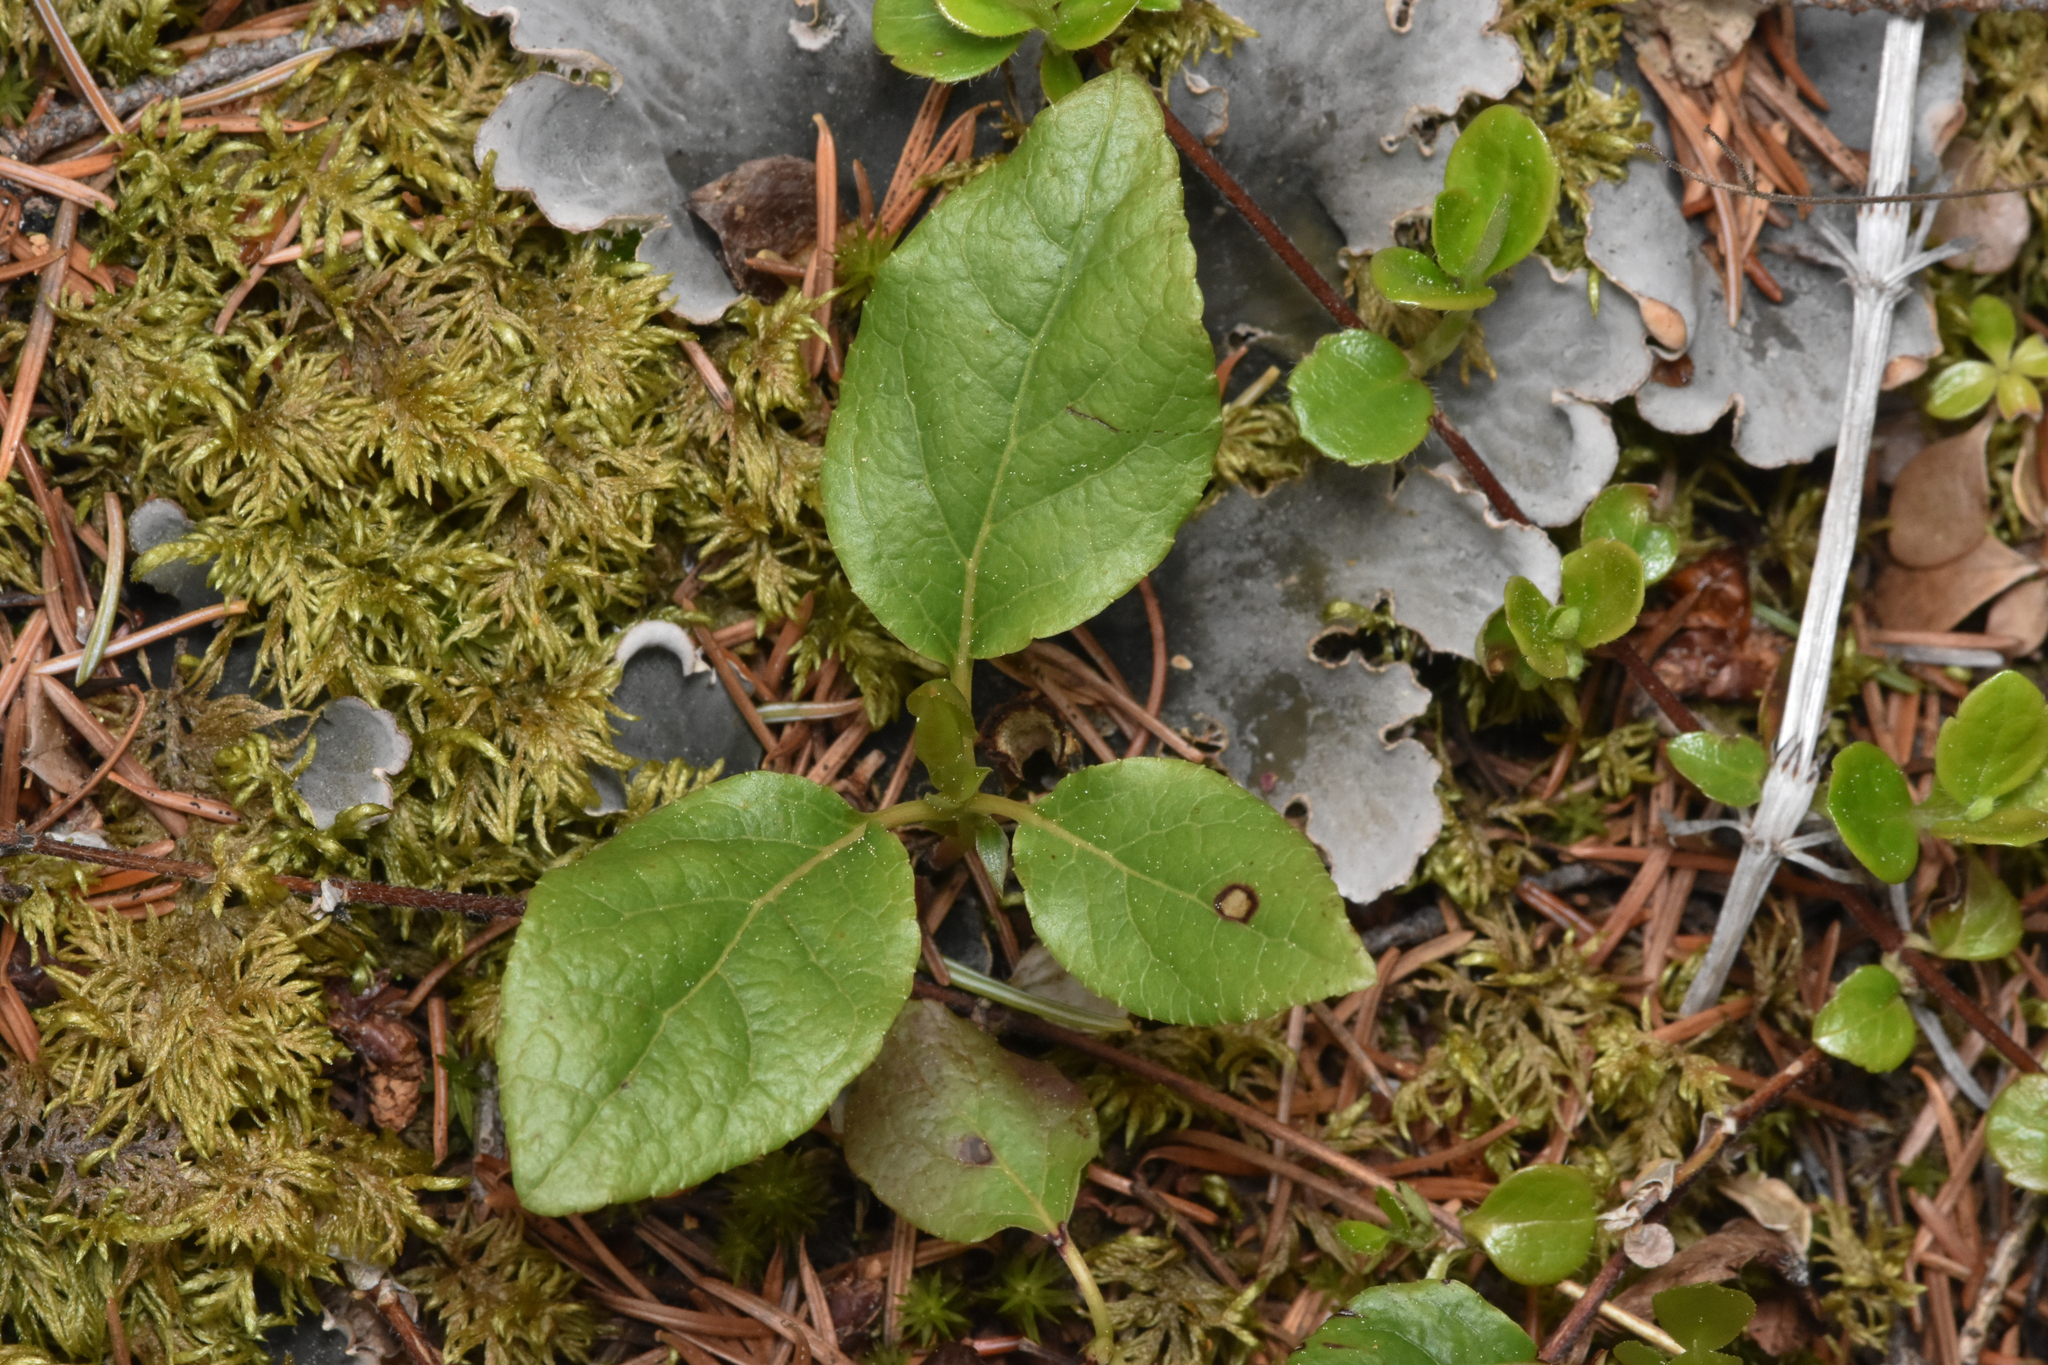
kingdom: Plantae
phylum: Tracheophyta
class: Magnoliopsida
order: Ericales
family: Ericaceae
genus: Orthilia
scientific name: Orthilia secunda
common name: One-sided orthilia
